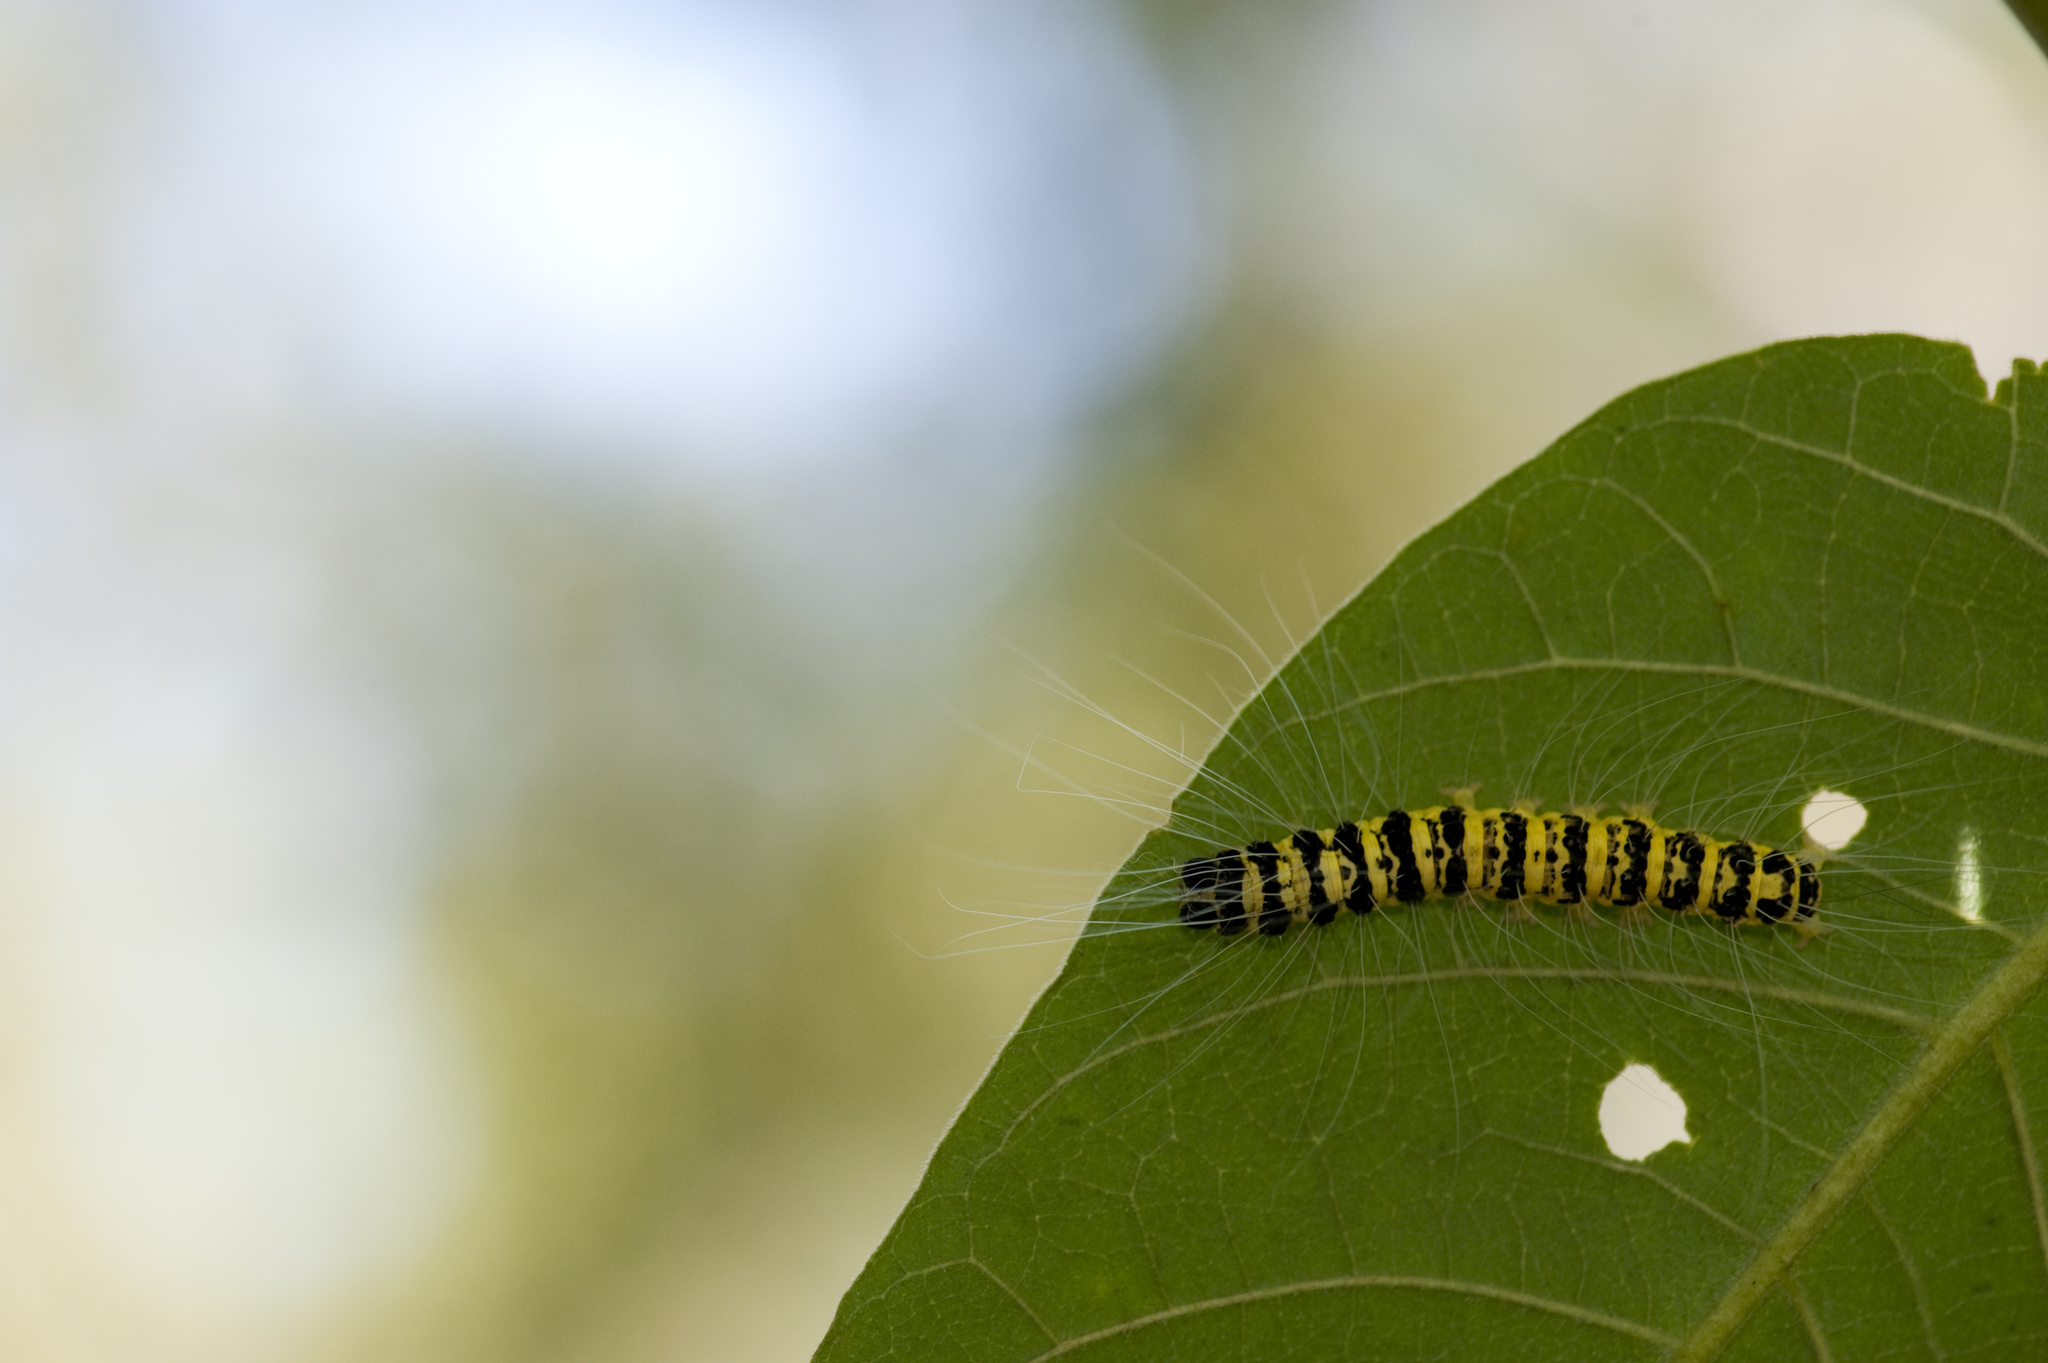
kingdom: Animalia
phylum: Arthropoda
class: Insecta
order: Lepidoptera
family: Nolidae
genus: Eligma
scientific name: Eligma narcissus
